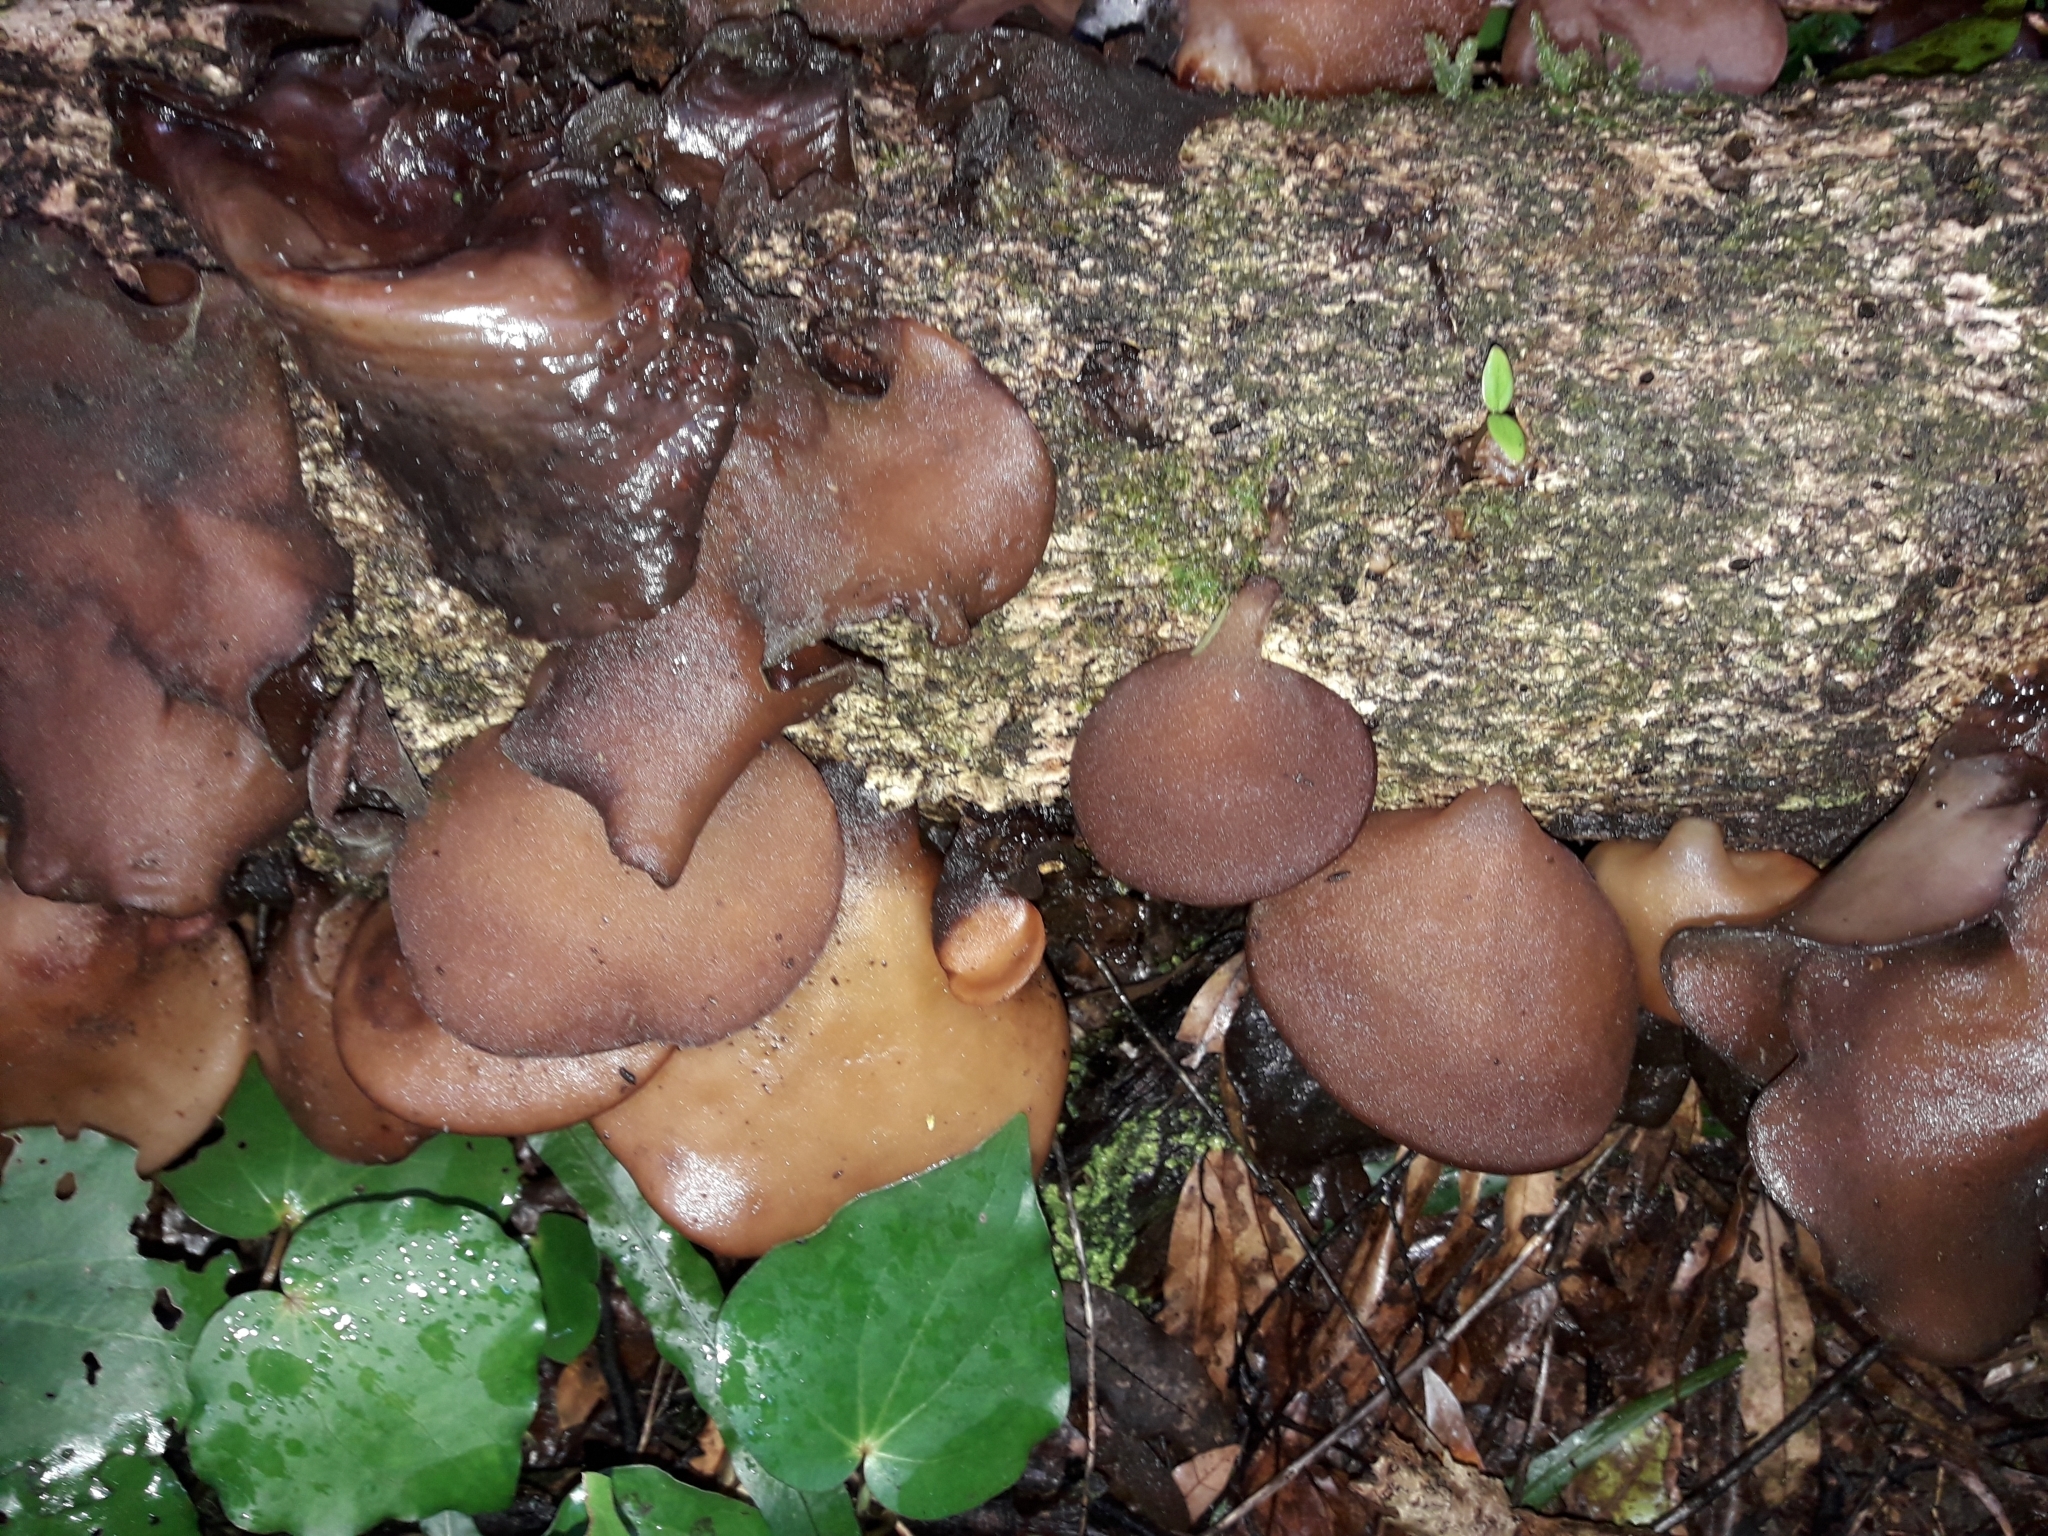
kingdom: Fungi
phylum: Basidiomycota
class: Agaricomycetes
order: Auriculariales
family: Auriculariaceae
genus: Auricularia
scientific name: Auricularia cornea
